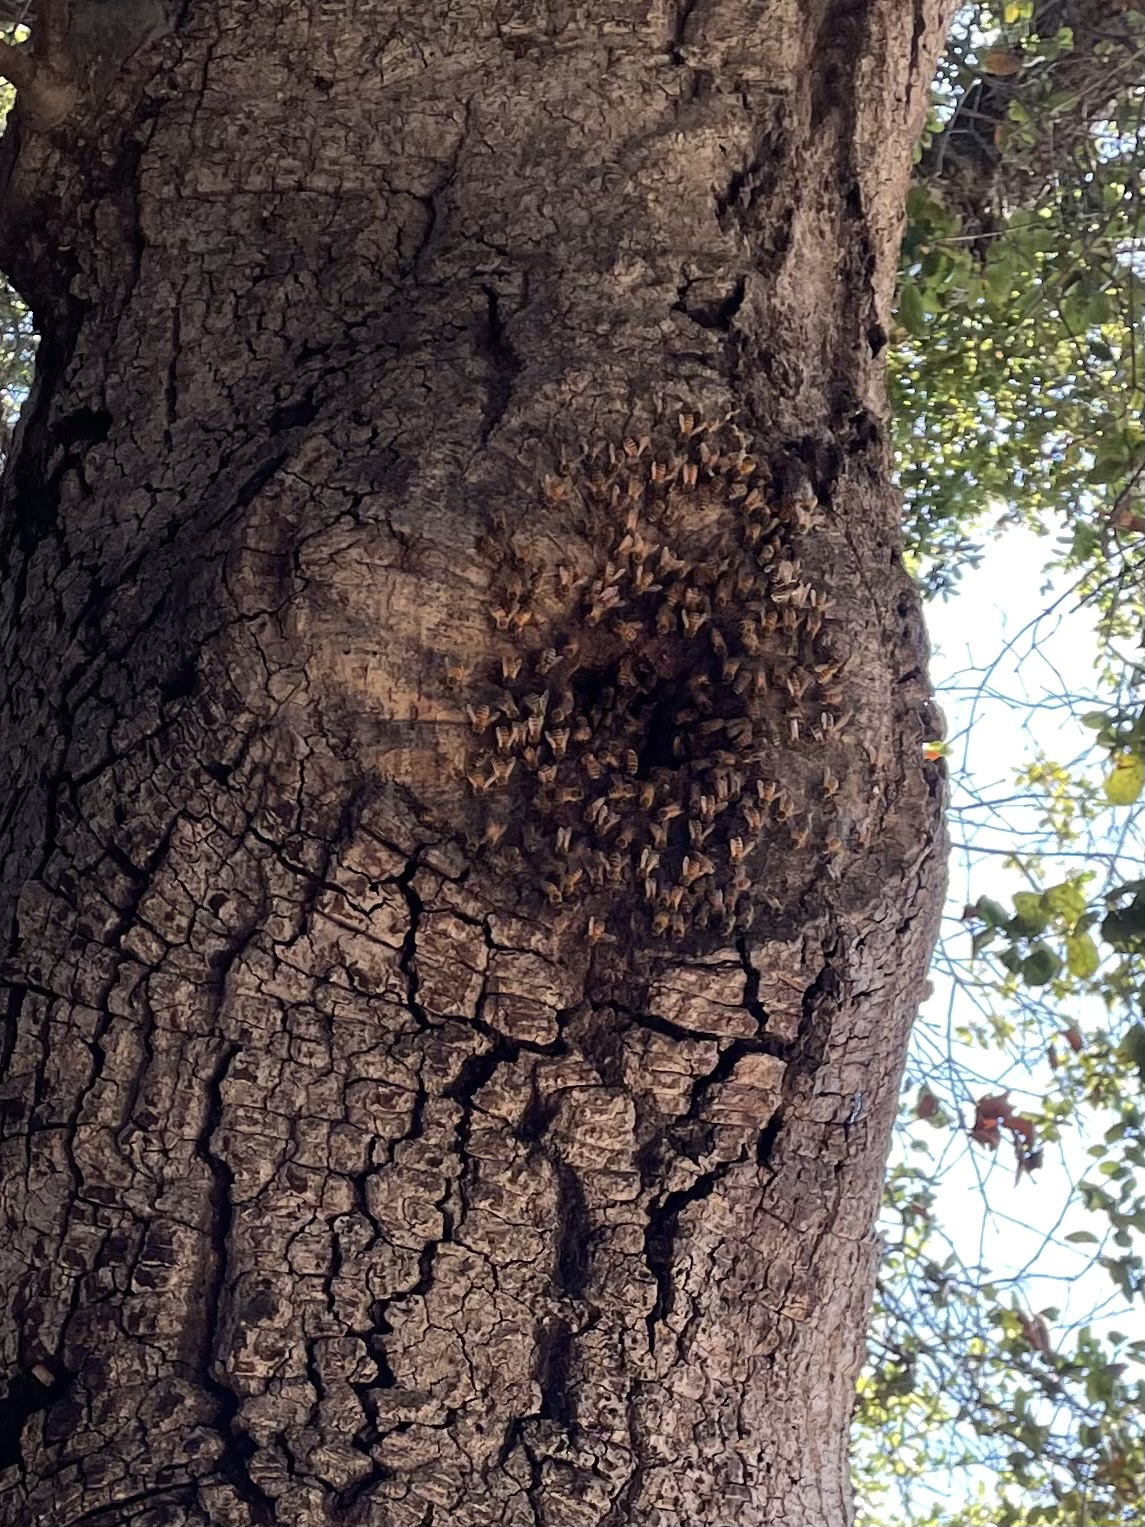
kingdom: Animalia
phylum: Arthropoda
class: Insecta
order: Hymenoptera
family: Apidae
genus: Apis
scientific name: Apis mellifera
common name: Honey bee
